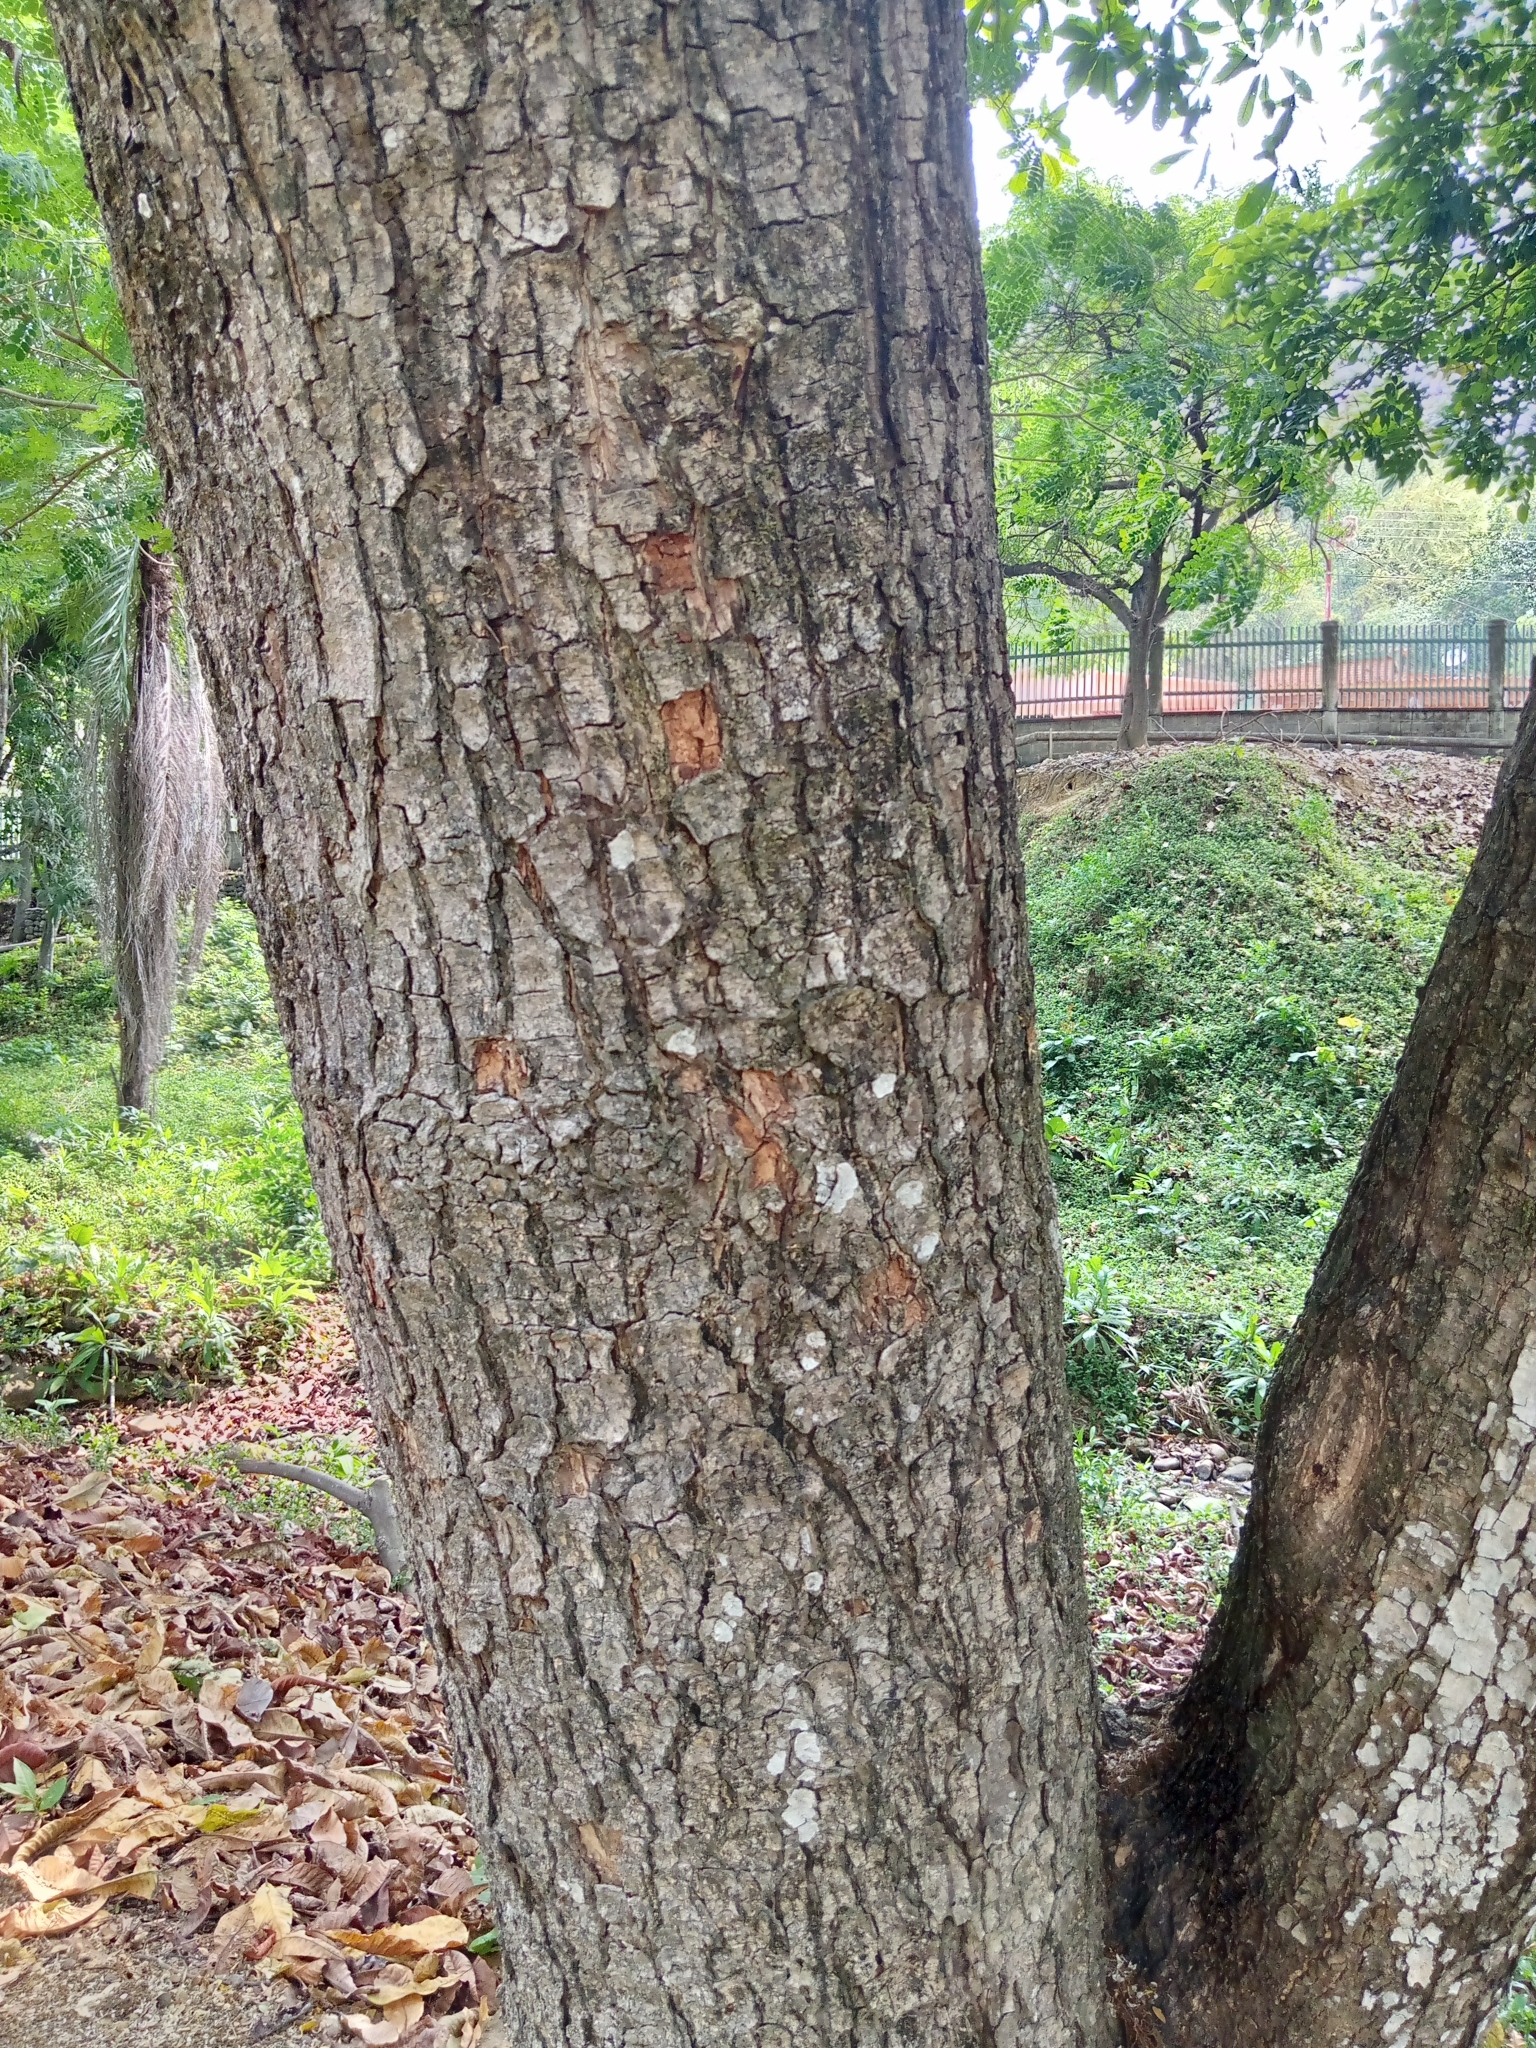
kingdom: Plantae
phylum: Tracheophyta
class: Magnoliopsida
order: Fabales
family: Fabaceae
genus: Samanea
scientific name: Samanea saman
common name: Raintree
